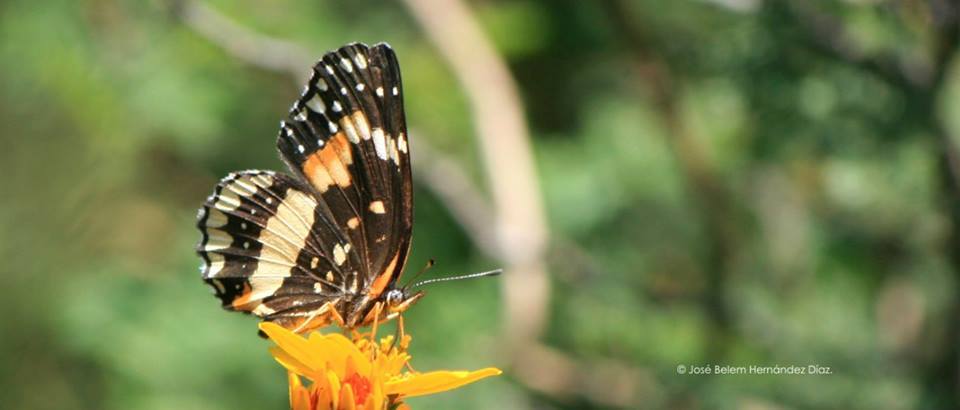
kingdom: Animalia
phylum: Arthropoda
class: Insecta
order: Lepidoptera
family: Nymphalidae
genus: Chlosyne
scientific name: Chlosyne lacinia
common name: Bordered patch
